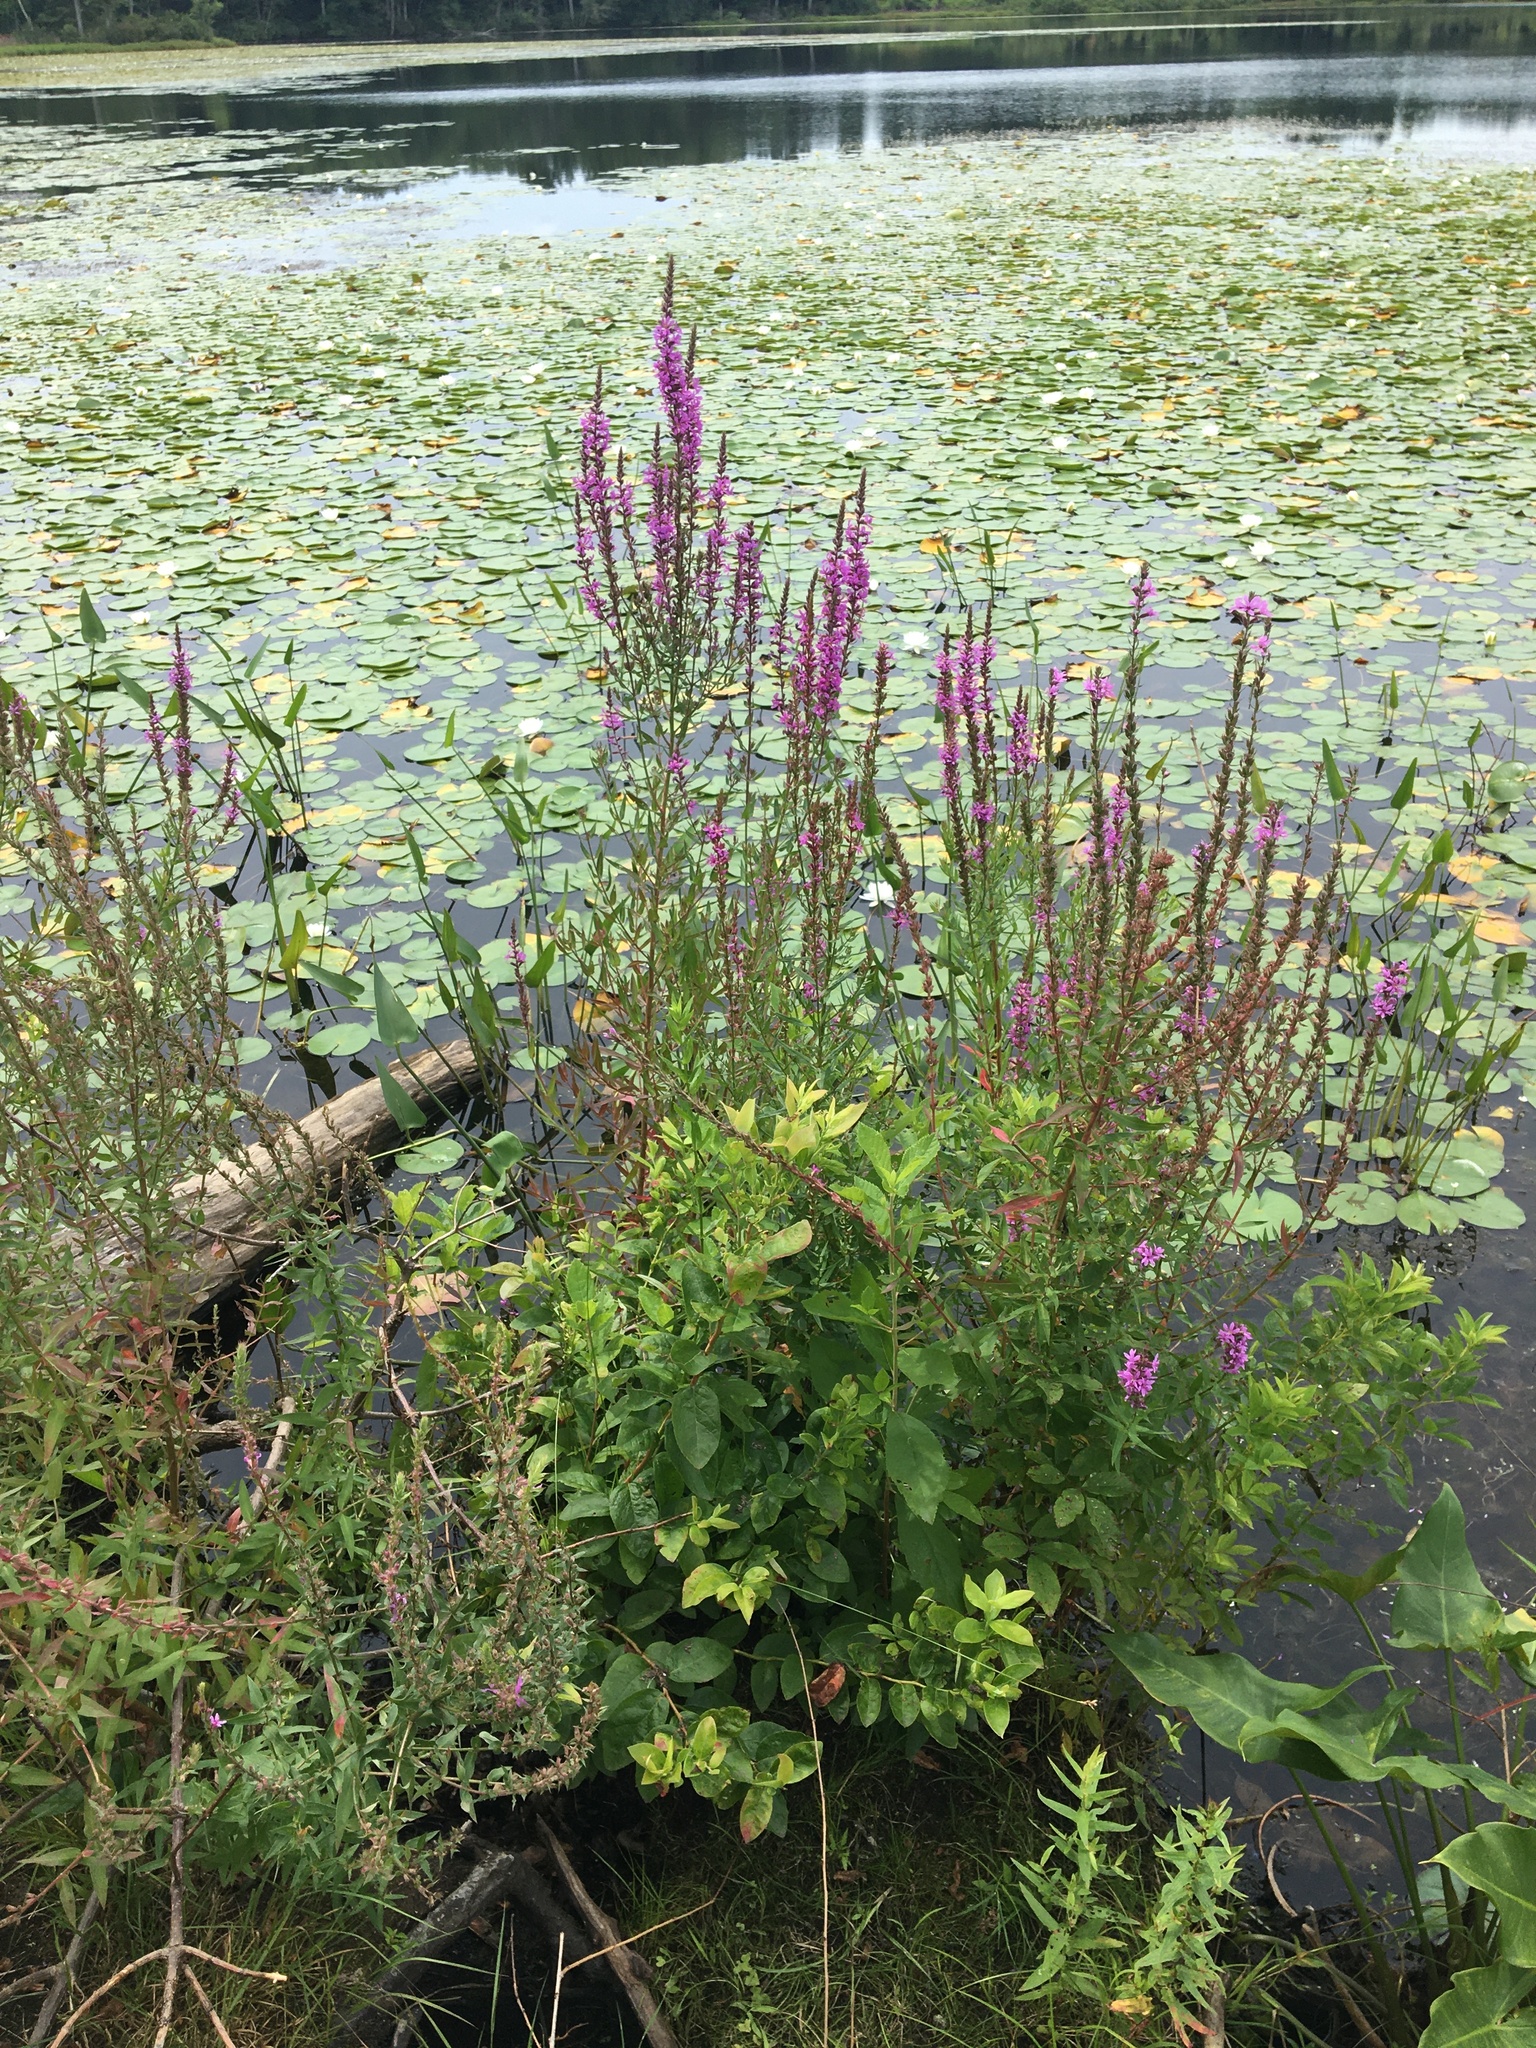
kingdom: Plantae
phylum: Tracheophyta
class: Magnoliopsida
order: Myrtales
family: Lythraceae
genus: Lythrum
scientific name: Lythrum salicaria
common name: Purple loosestrife
